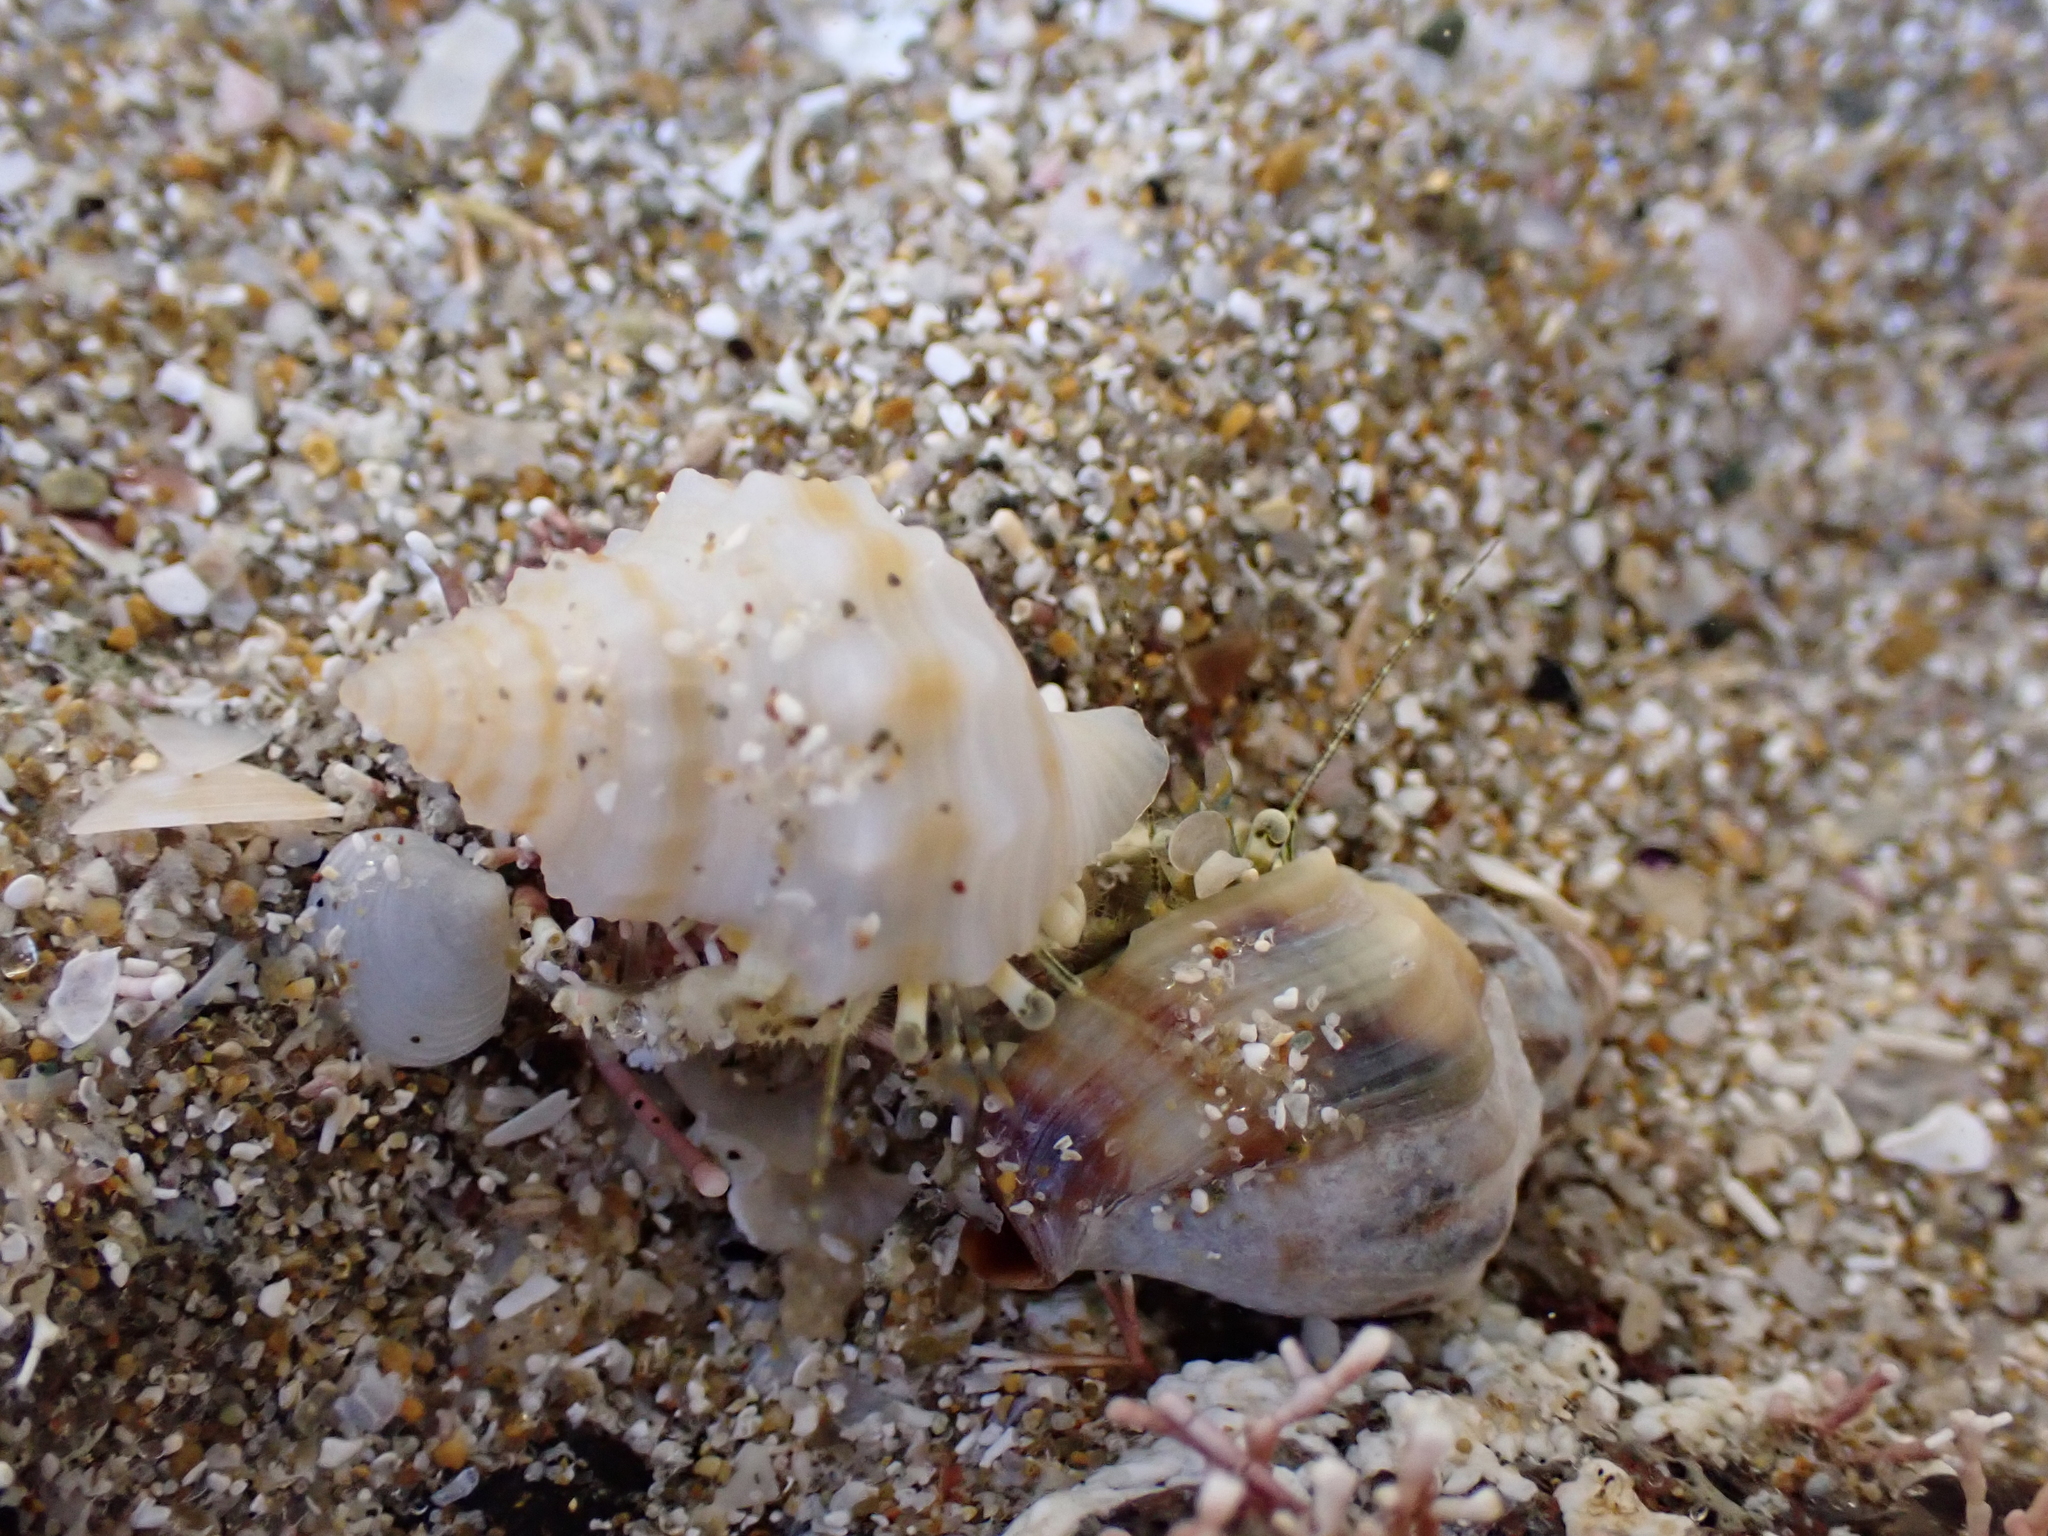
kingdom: Animalia
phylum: Arthropoda
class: Malacostraca
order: Decapoda
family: Paguridae
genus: Pagurus
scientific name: Pagurus novizealandiae
